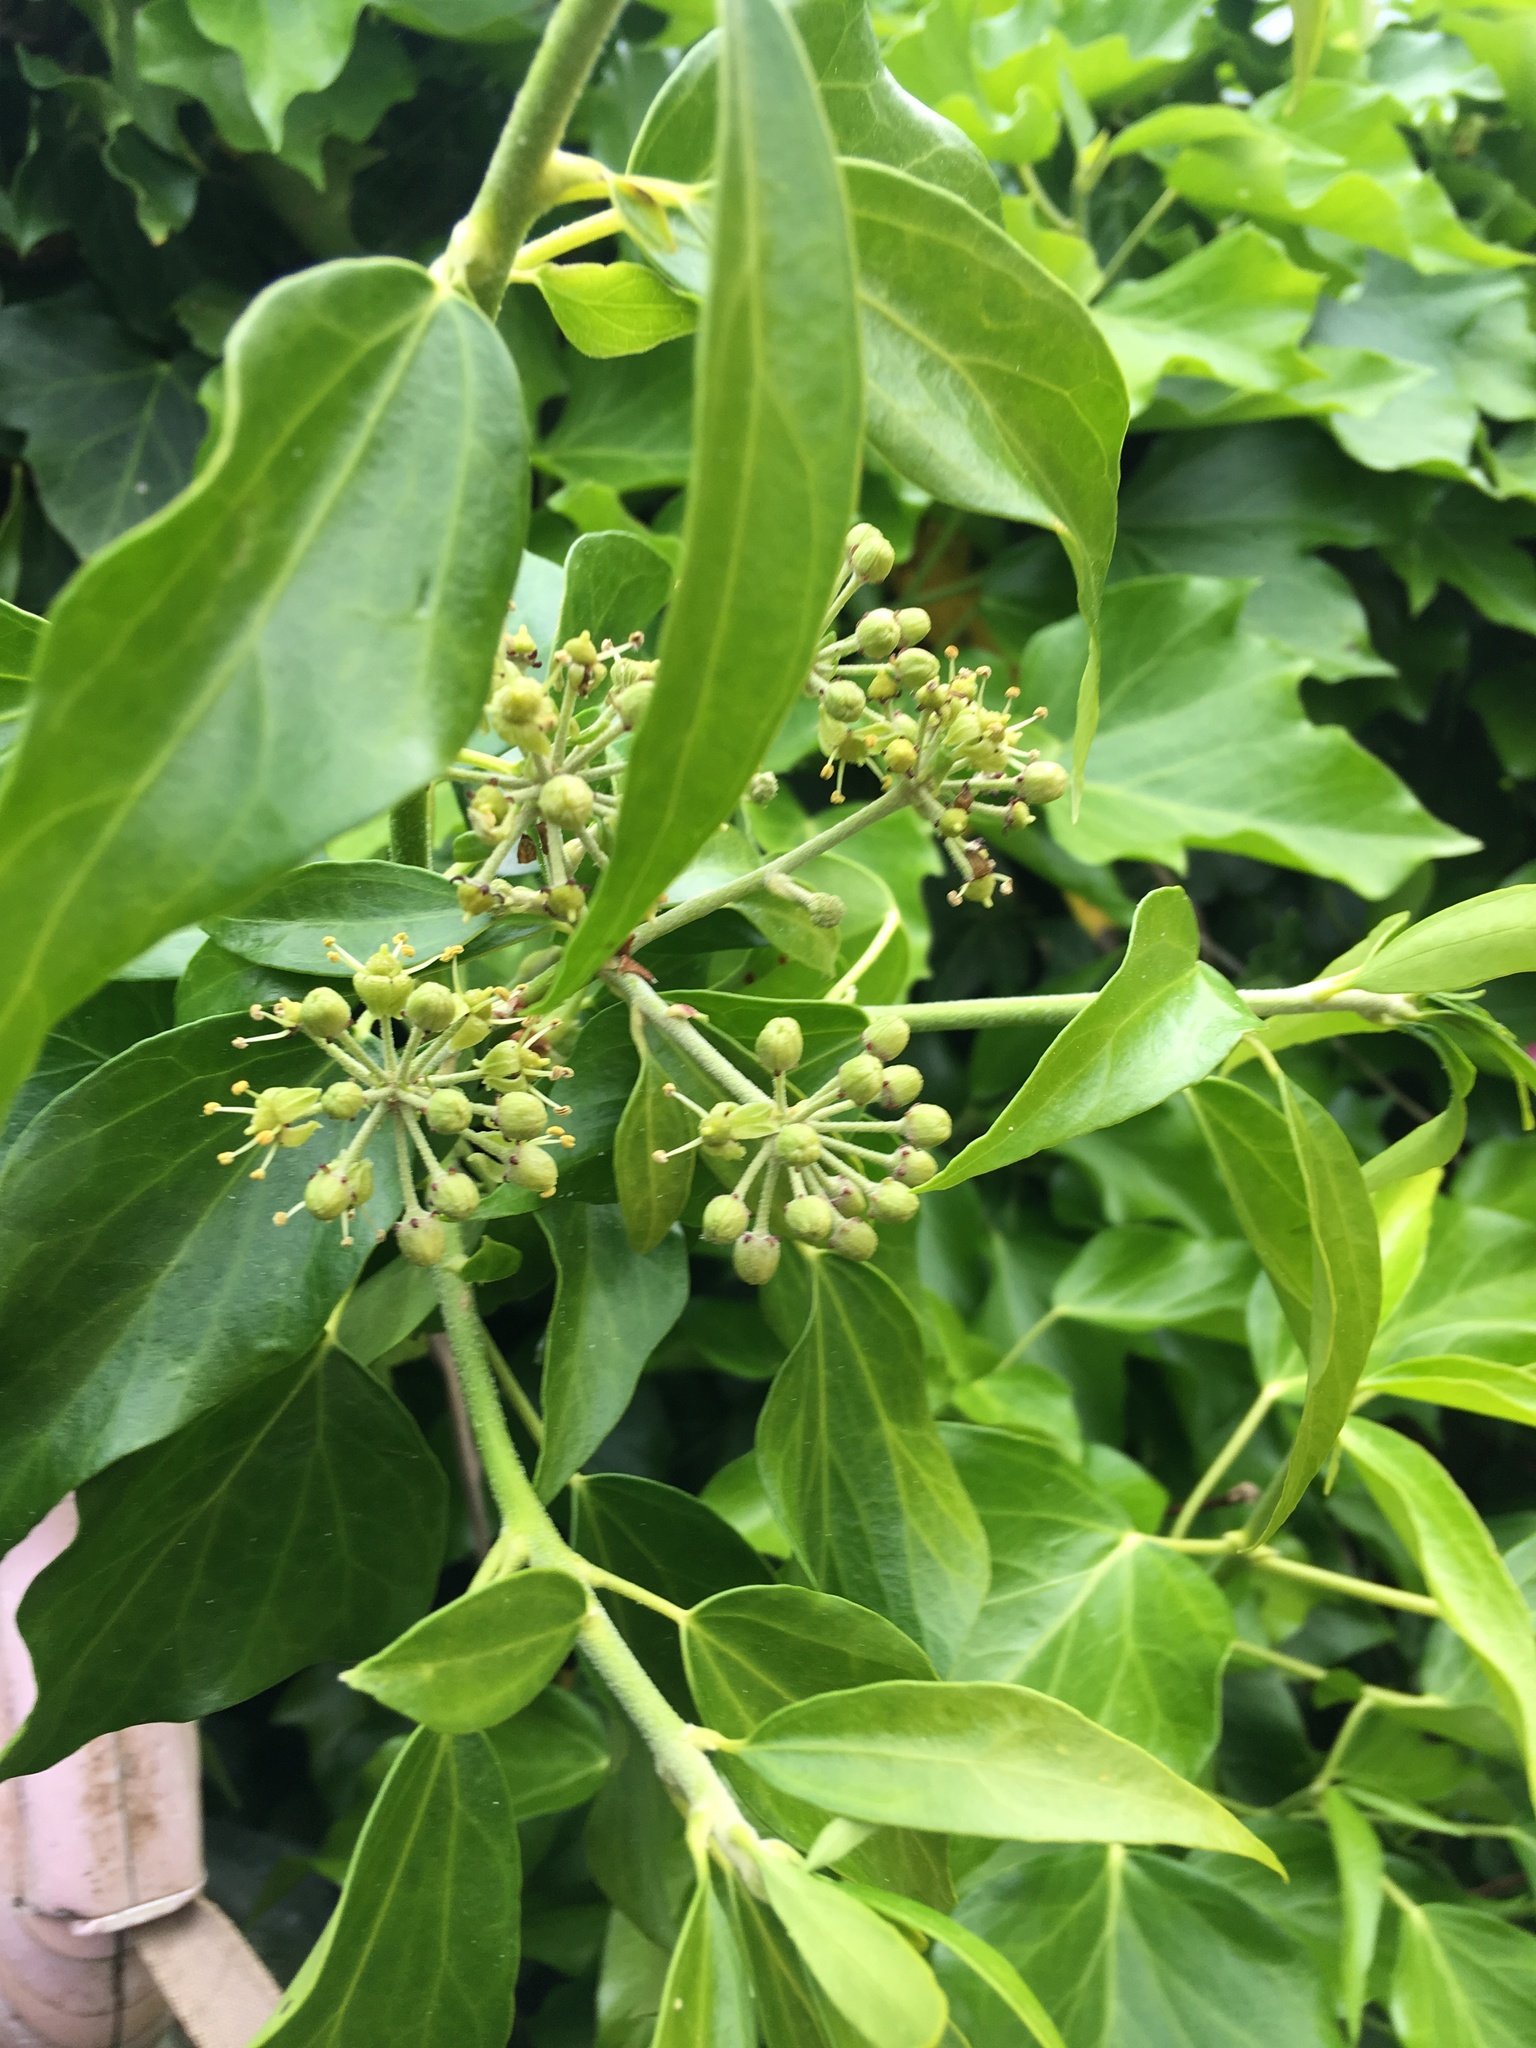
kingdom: Plantae
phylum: Tracheophyta
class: Magnoliopsida
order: Apiales
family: Araliaceae
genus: Hedera
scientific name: Hedera helix
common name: Ivy
